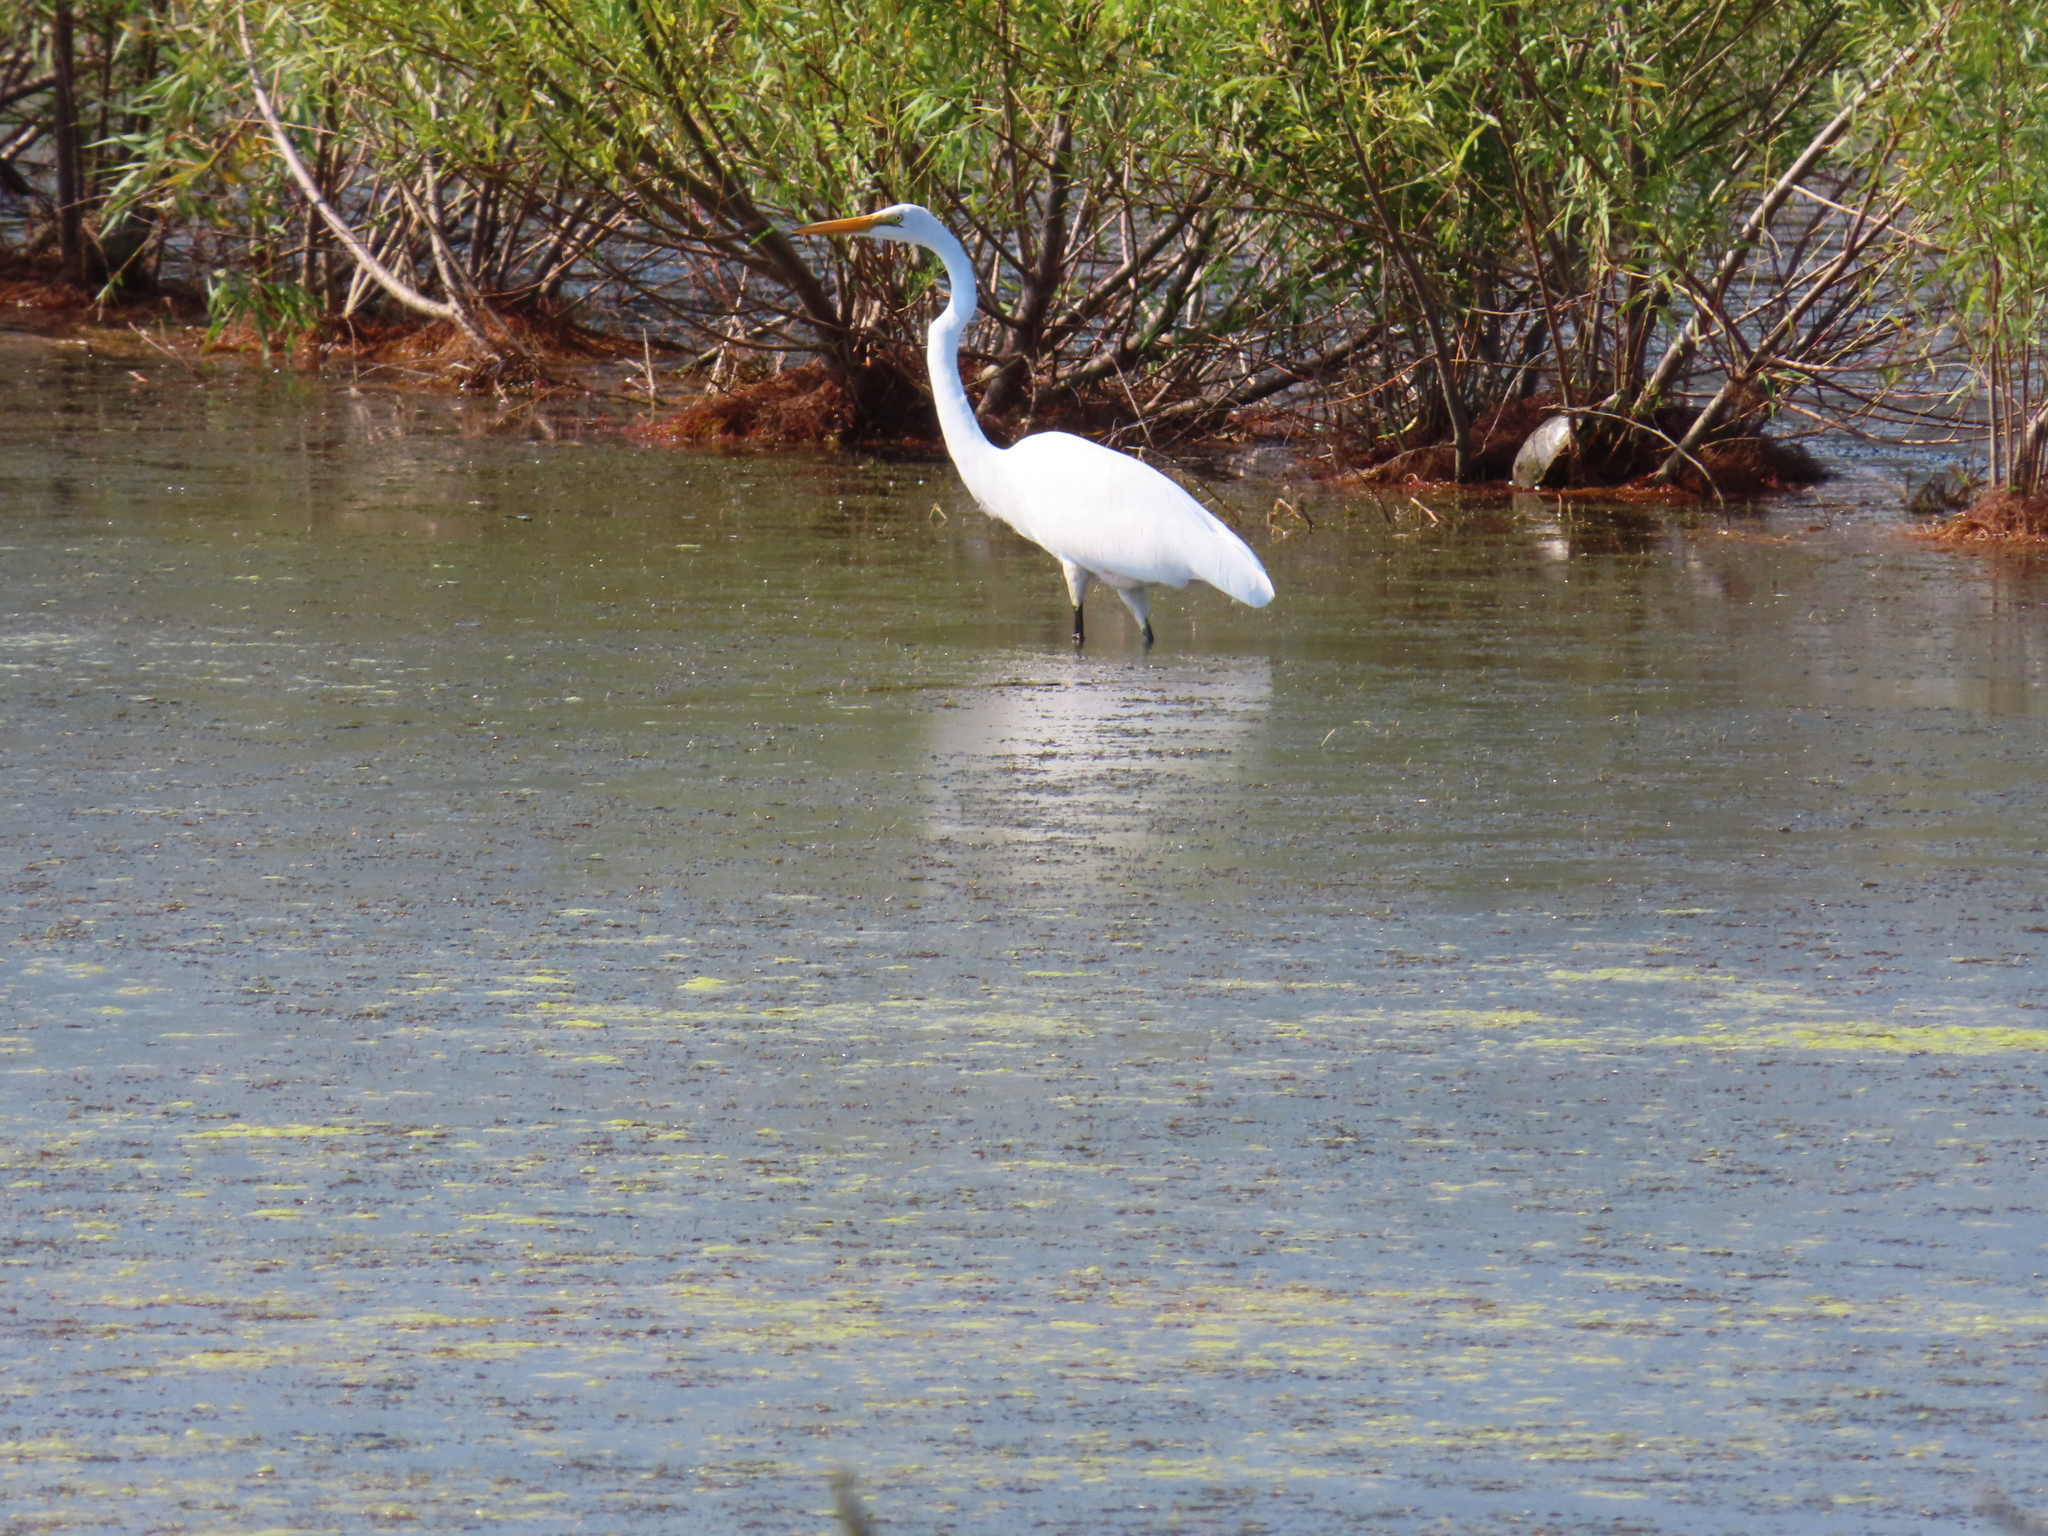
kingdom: Animalia
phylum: Chordata
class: Aves
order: Pelecaniformes
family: Ardeidae
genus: Ardea
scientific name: Ardea alba
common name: Great egret
